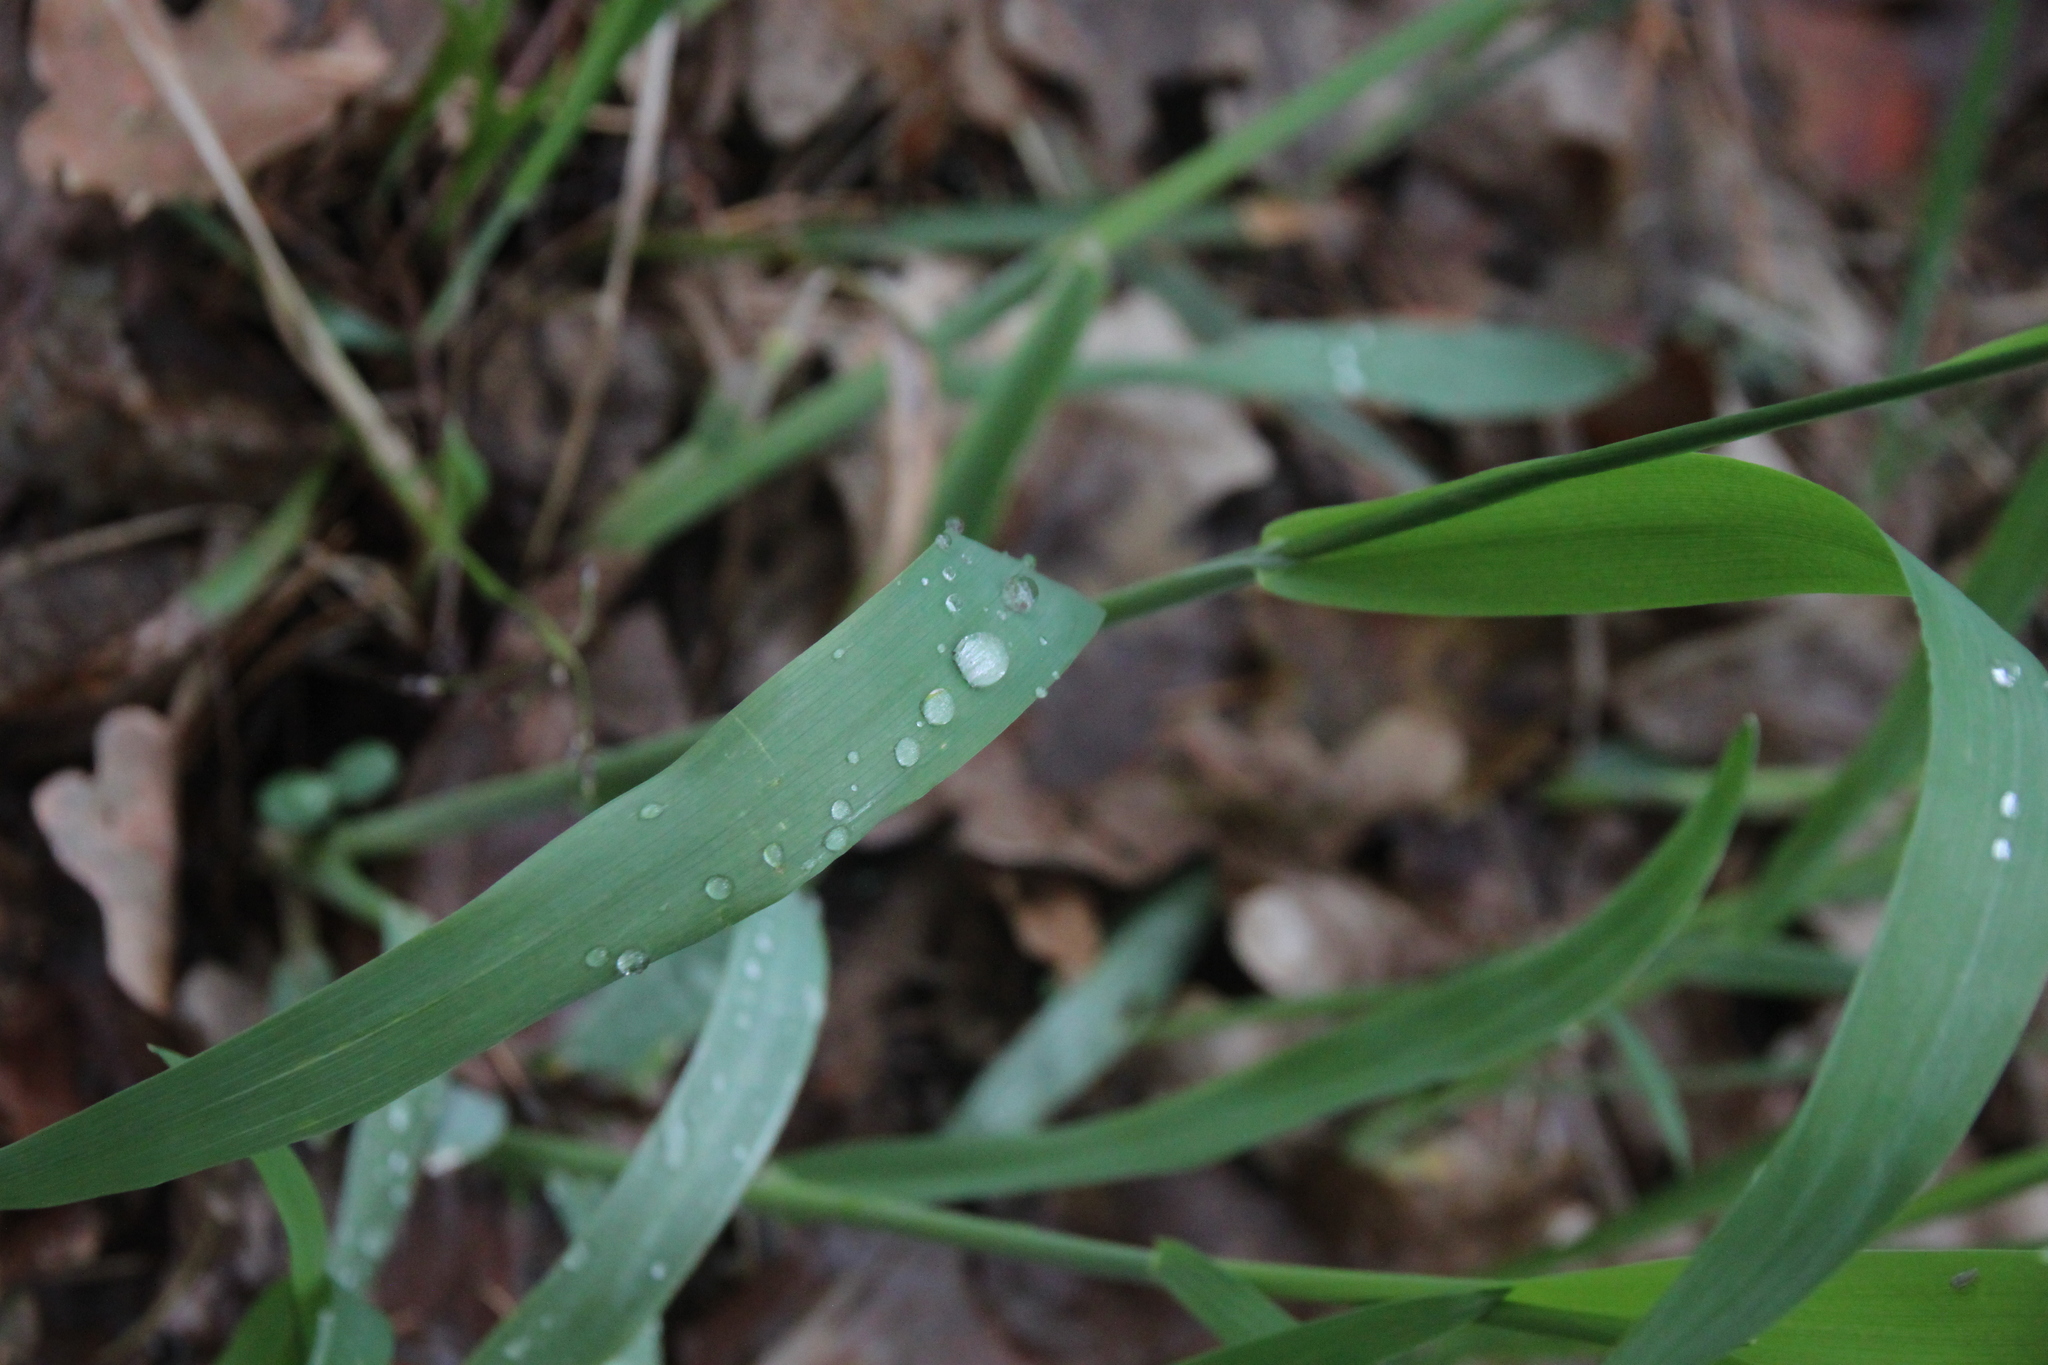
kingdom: Plantae
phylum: Tracheophyta
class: Liliopsida
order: Poales
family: Poaceae
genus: Milium
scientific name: Milium effusum
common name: Wood millet
